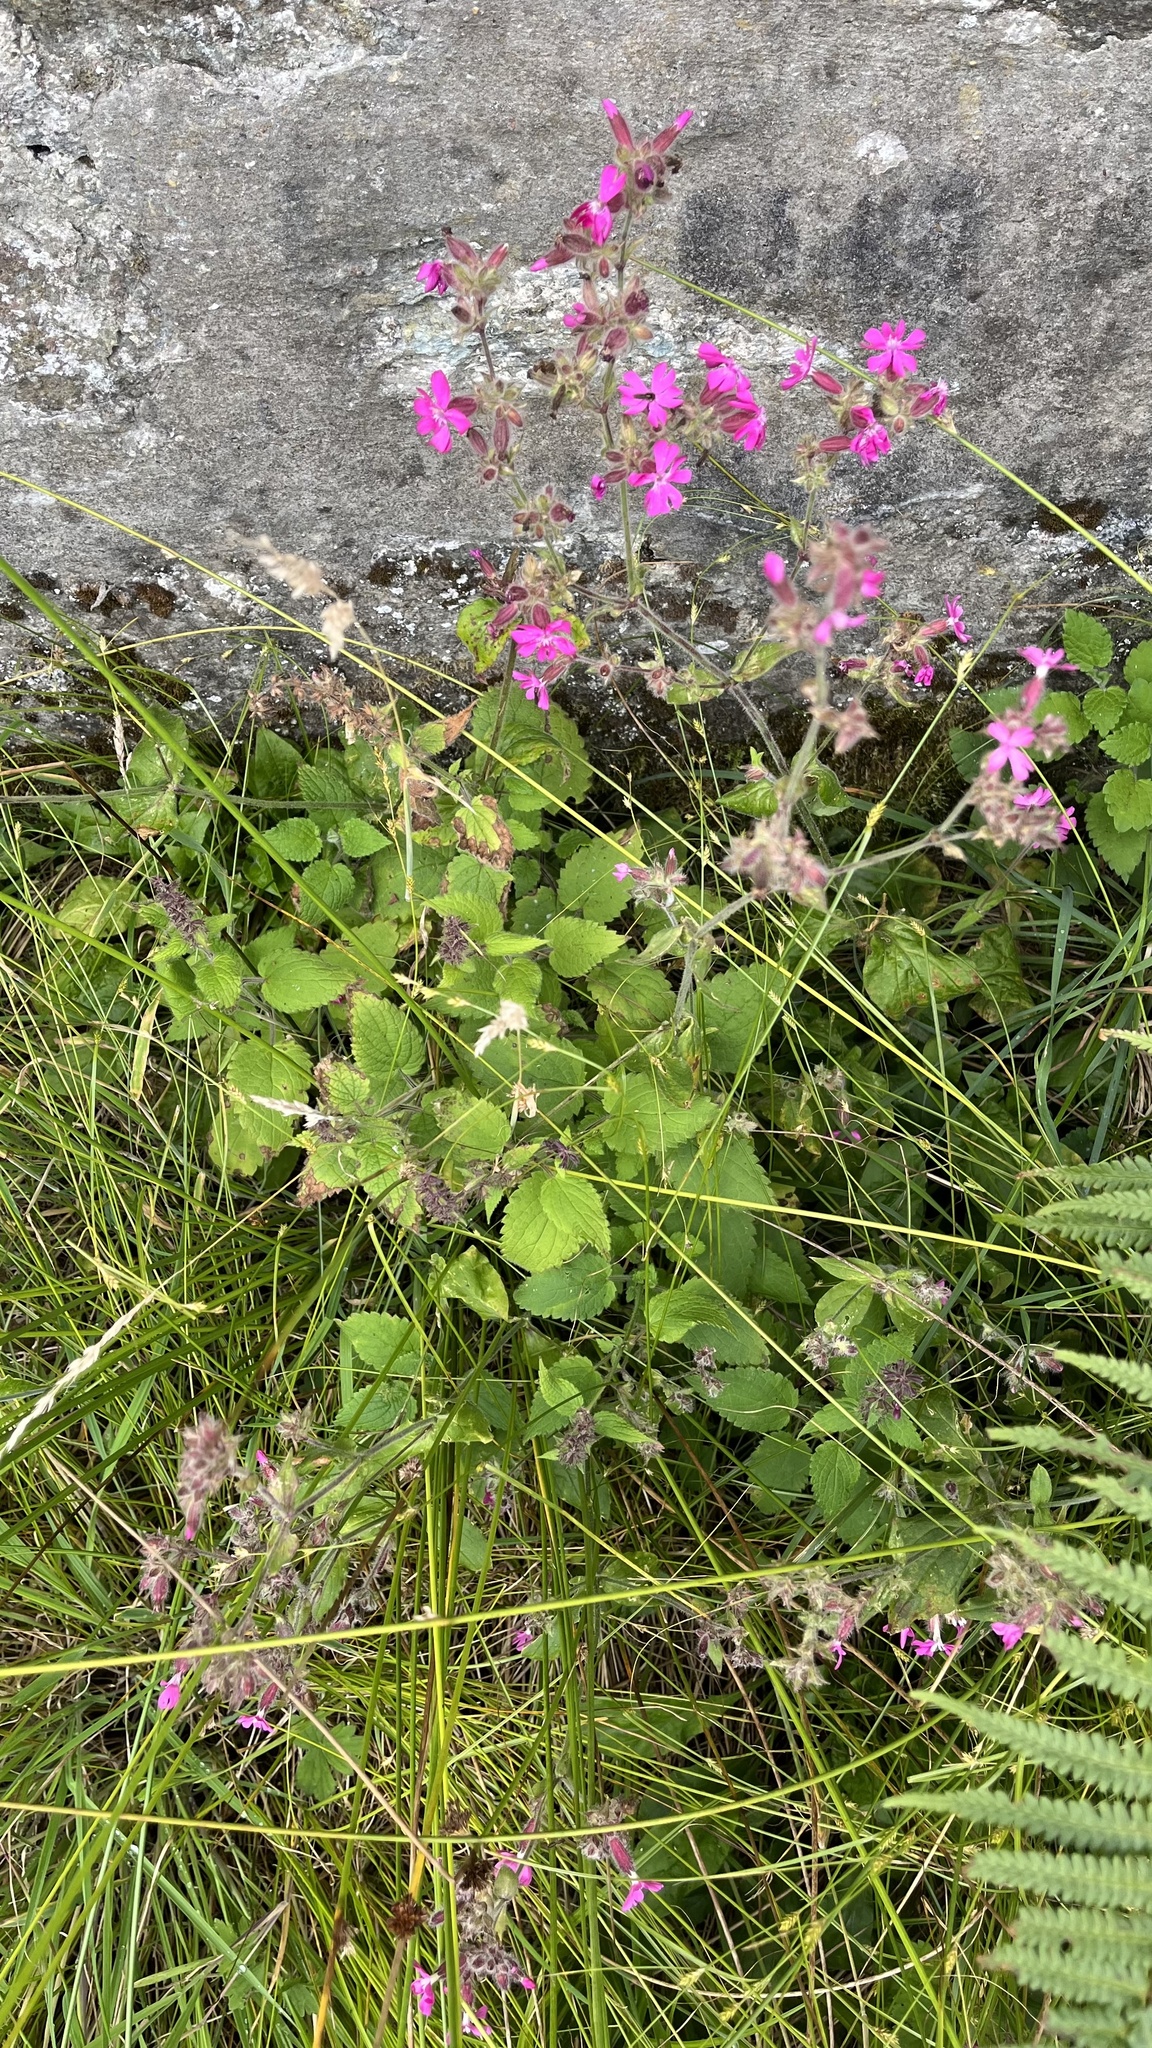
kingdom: Plantae
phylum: Tracheophyta
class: Magnoliopsida
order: Caryophyllales
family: Caryophyllaceae
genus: Silene
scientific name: Silene dioica
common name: Red campion
